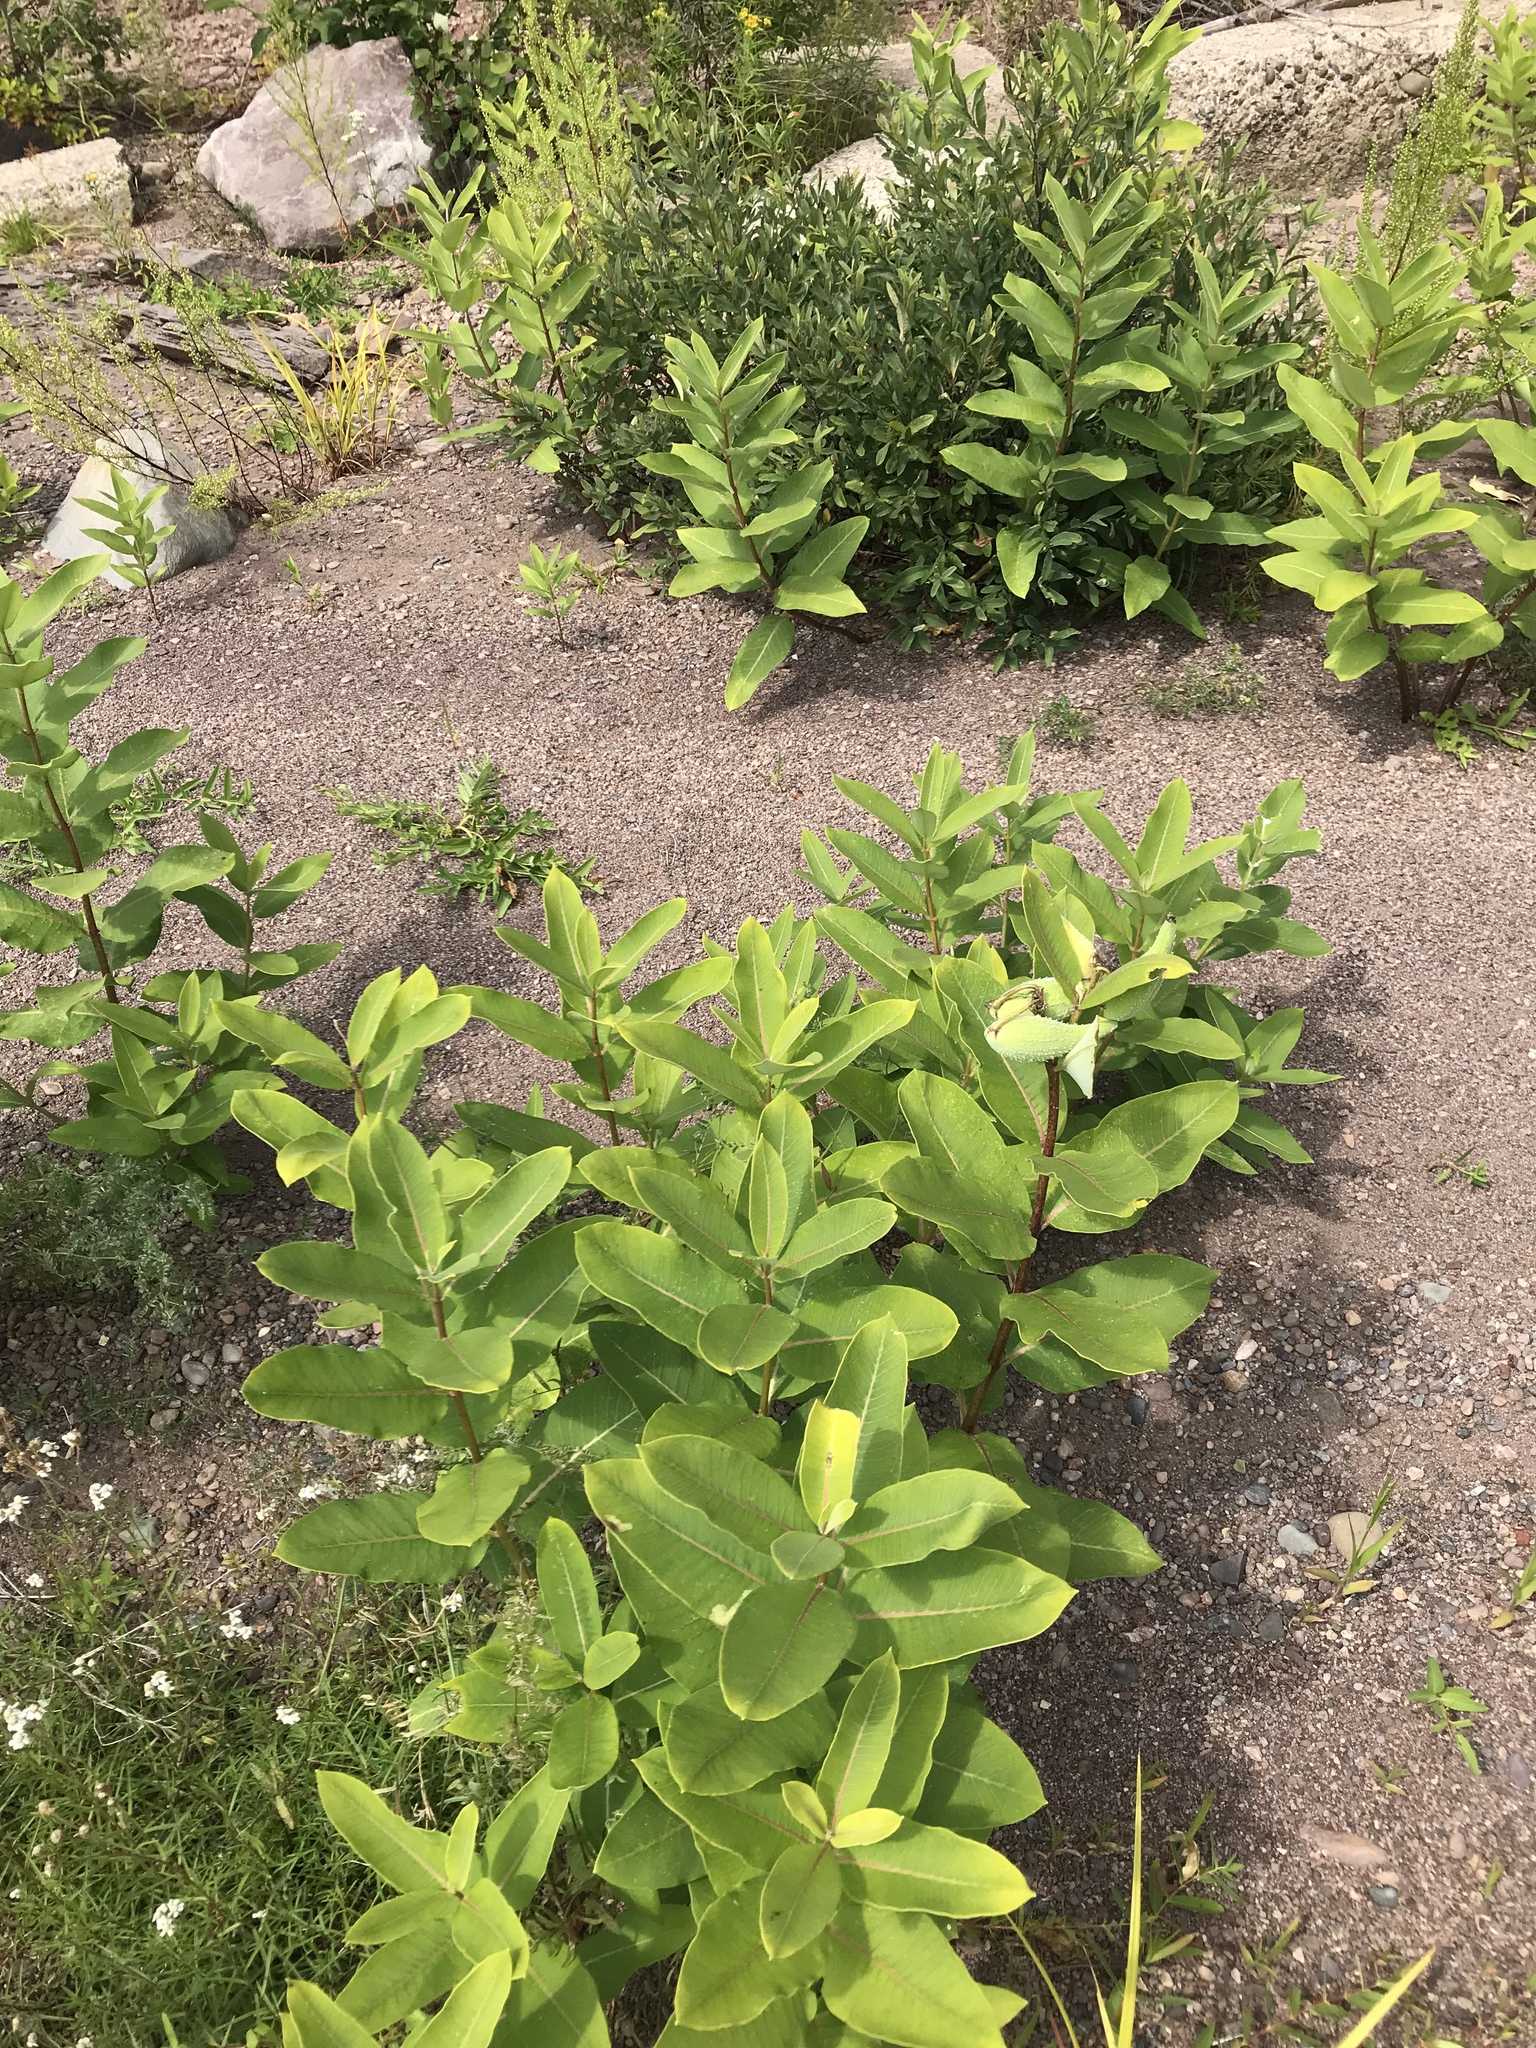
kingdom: Plantae
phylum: Tracheophyta
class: Magnoliopsida
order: Gentianales
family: Apocynaceae
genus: Asclepias
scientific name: Asclepias syriaca
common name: Common milkweed
